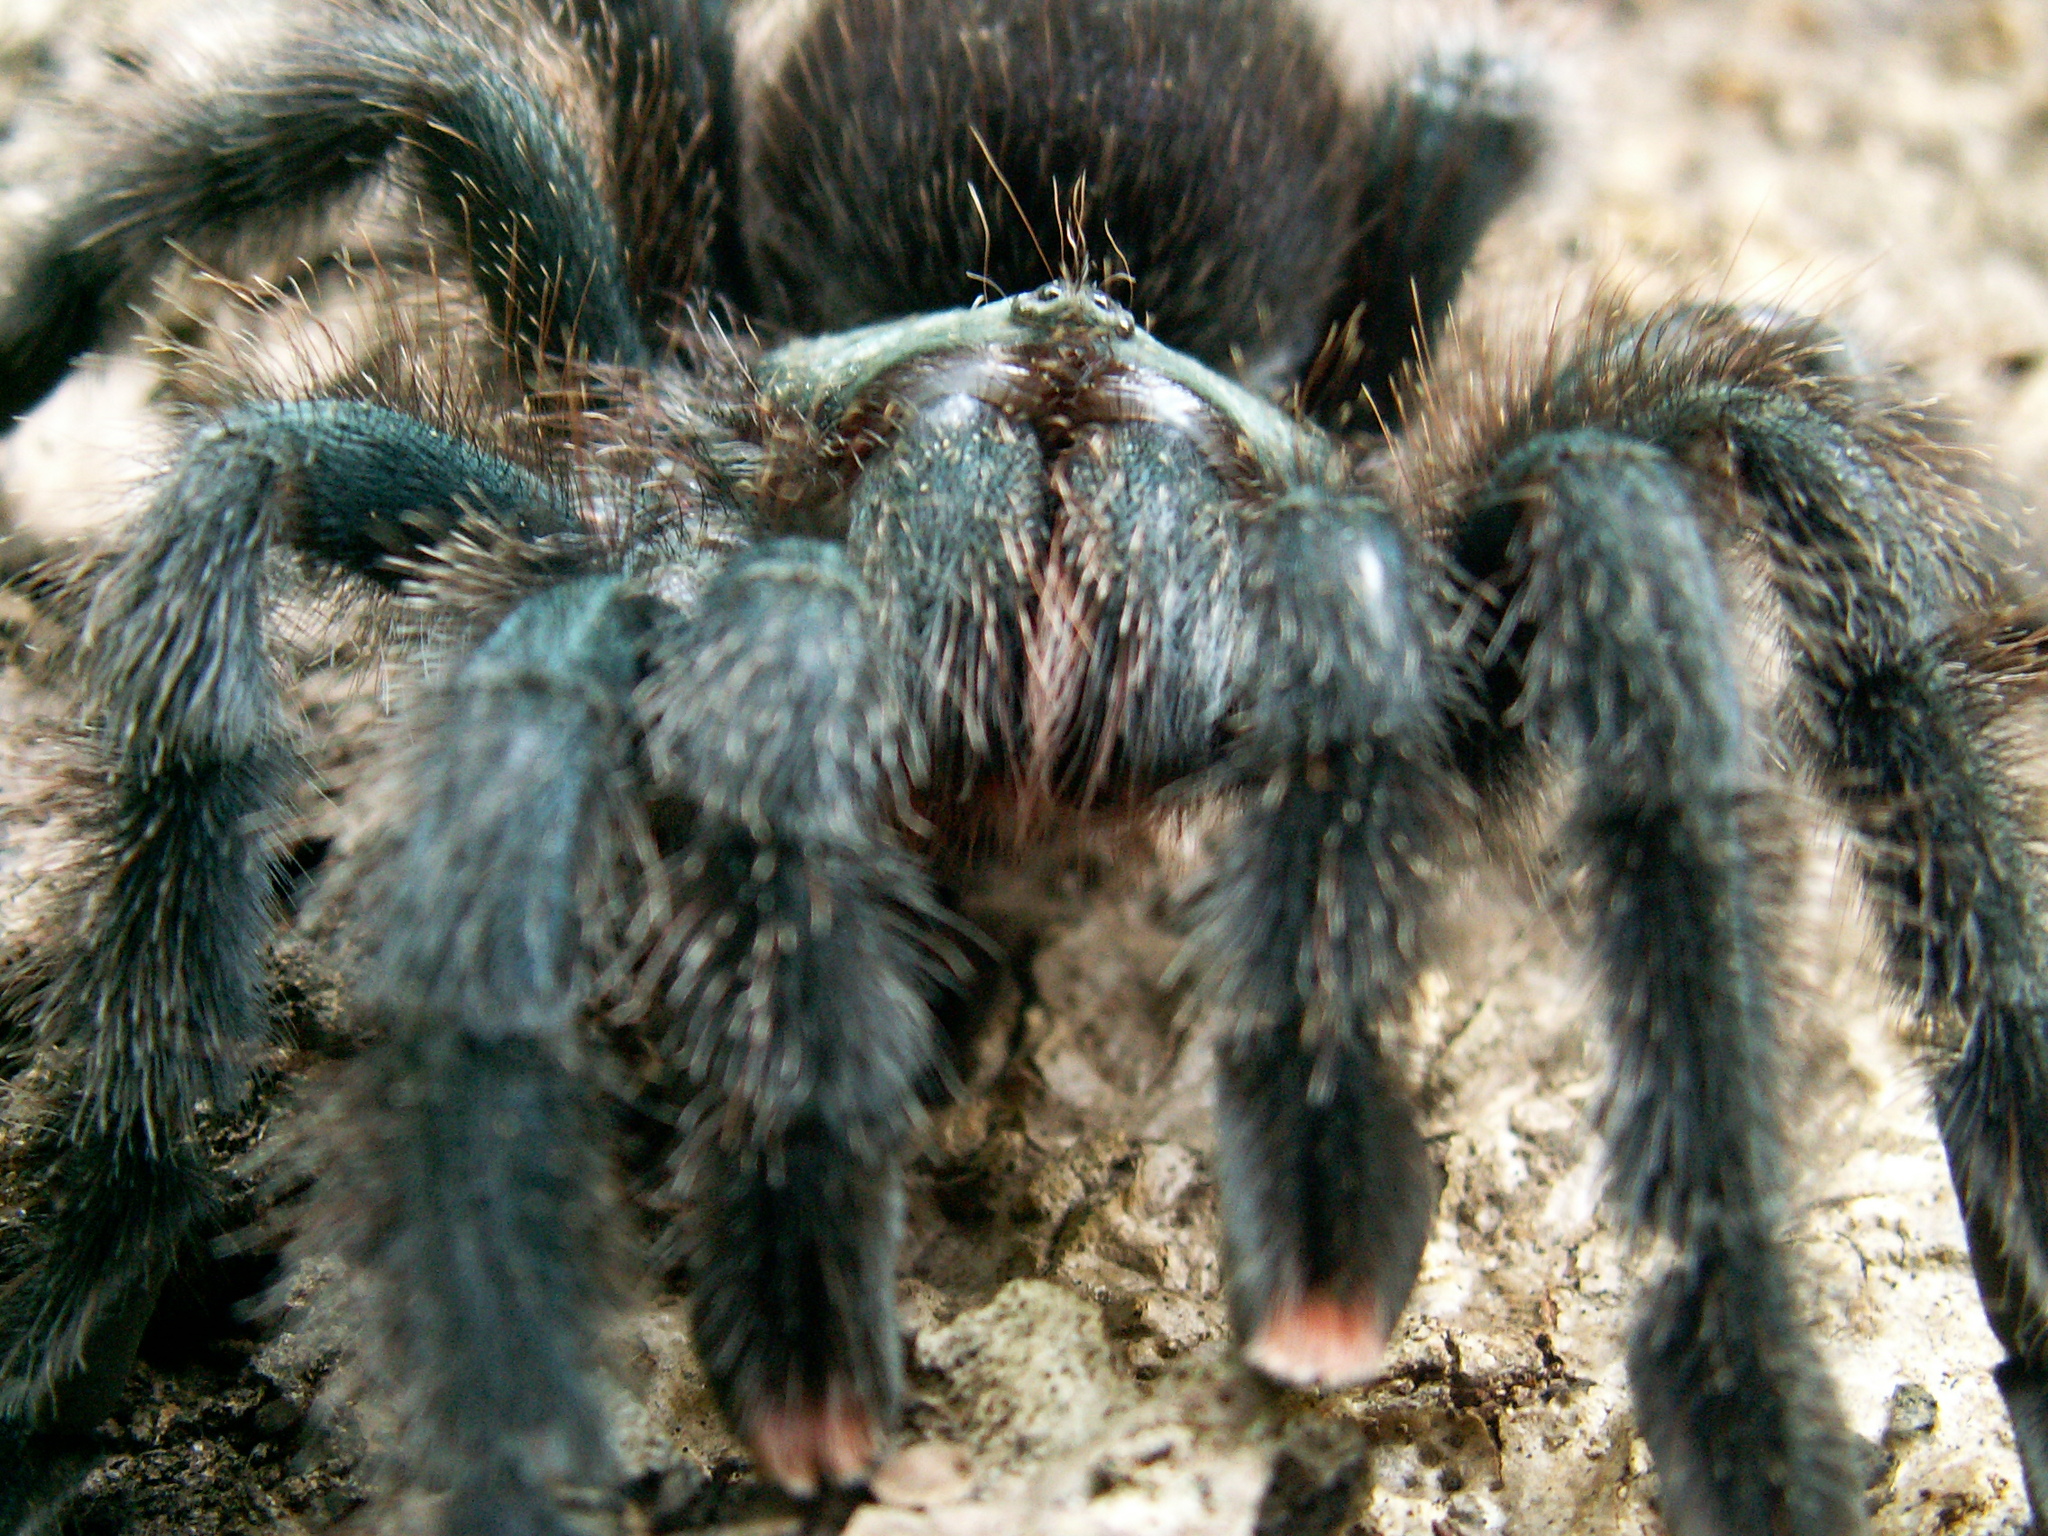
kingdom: Animalia
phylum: Arthropoda
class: Arachnida
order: Araneae
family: Theraphosidae
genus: Avicularia
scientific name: Avicularia avicularia
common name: Tarantula spiders
